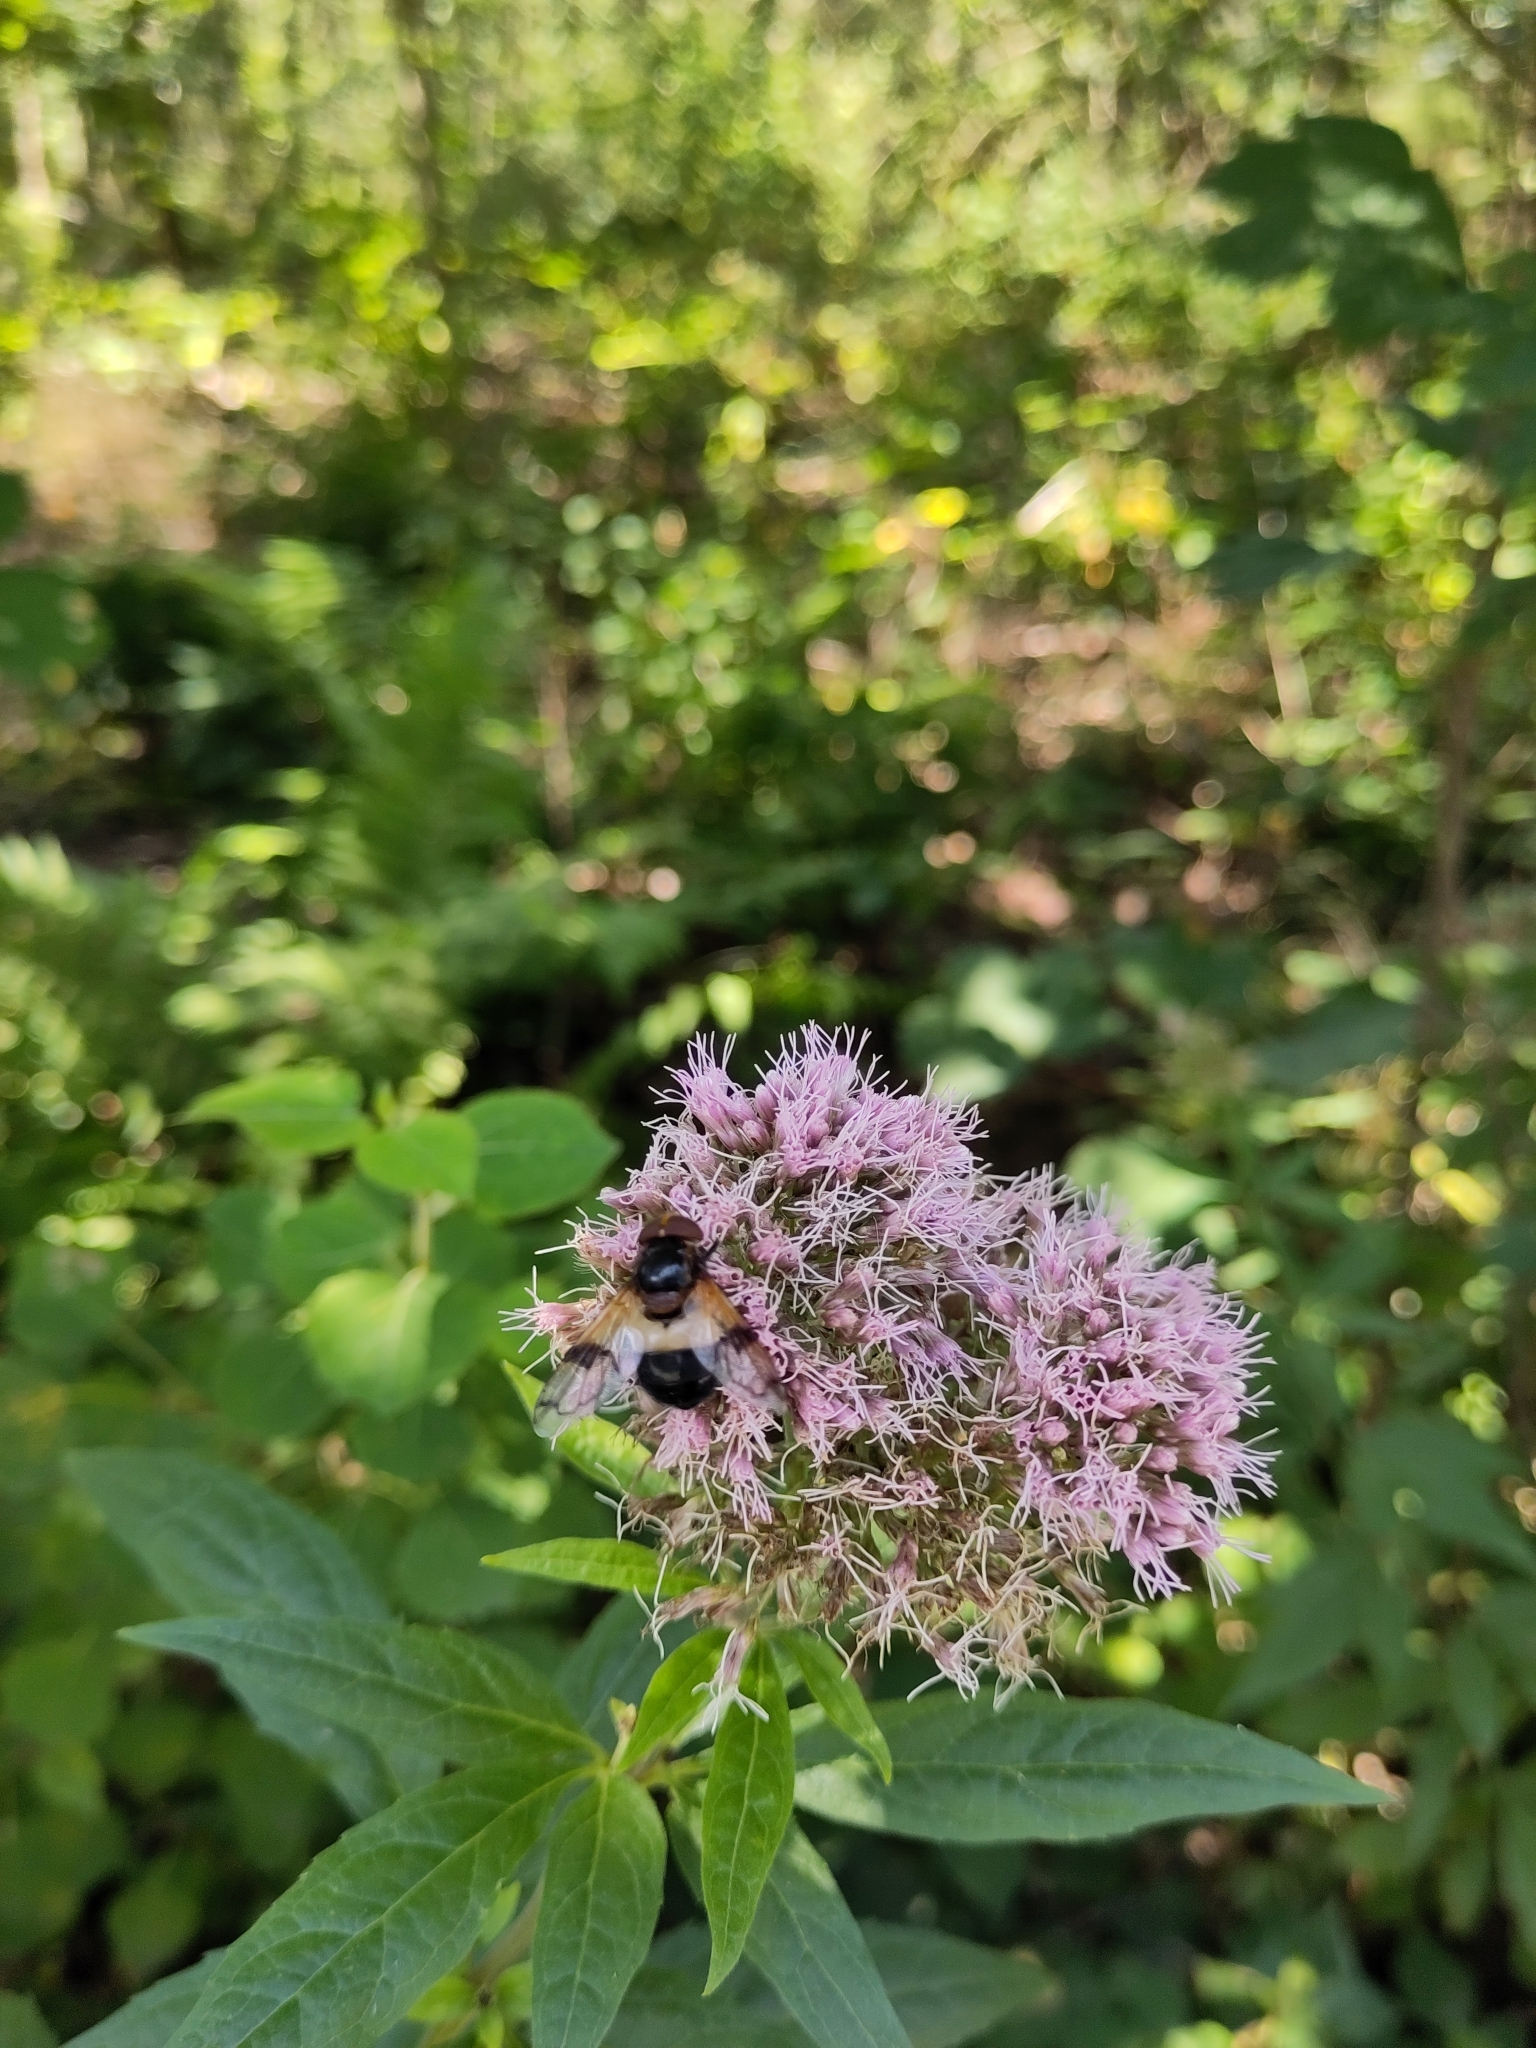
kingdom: Animalia
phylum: Arthropoda
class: Insecta
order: Diptera
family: Syrphidae
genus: Volucella
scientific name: Volucella pellucens
